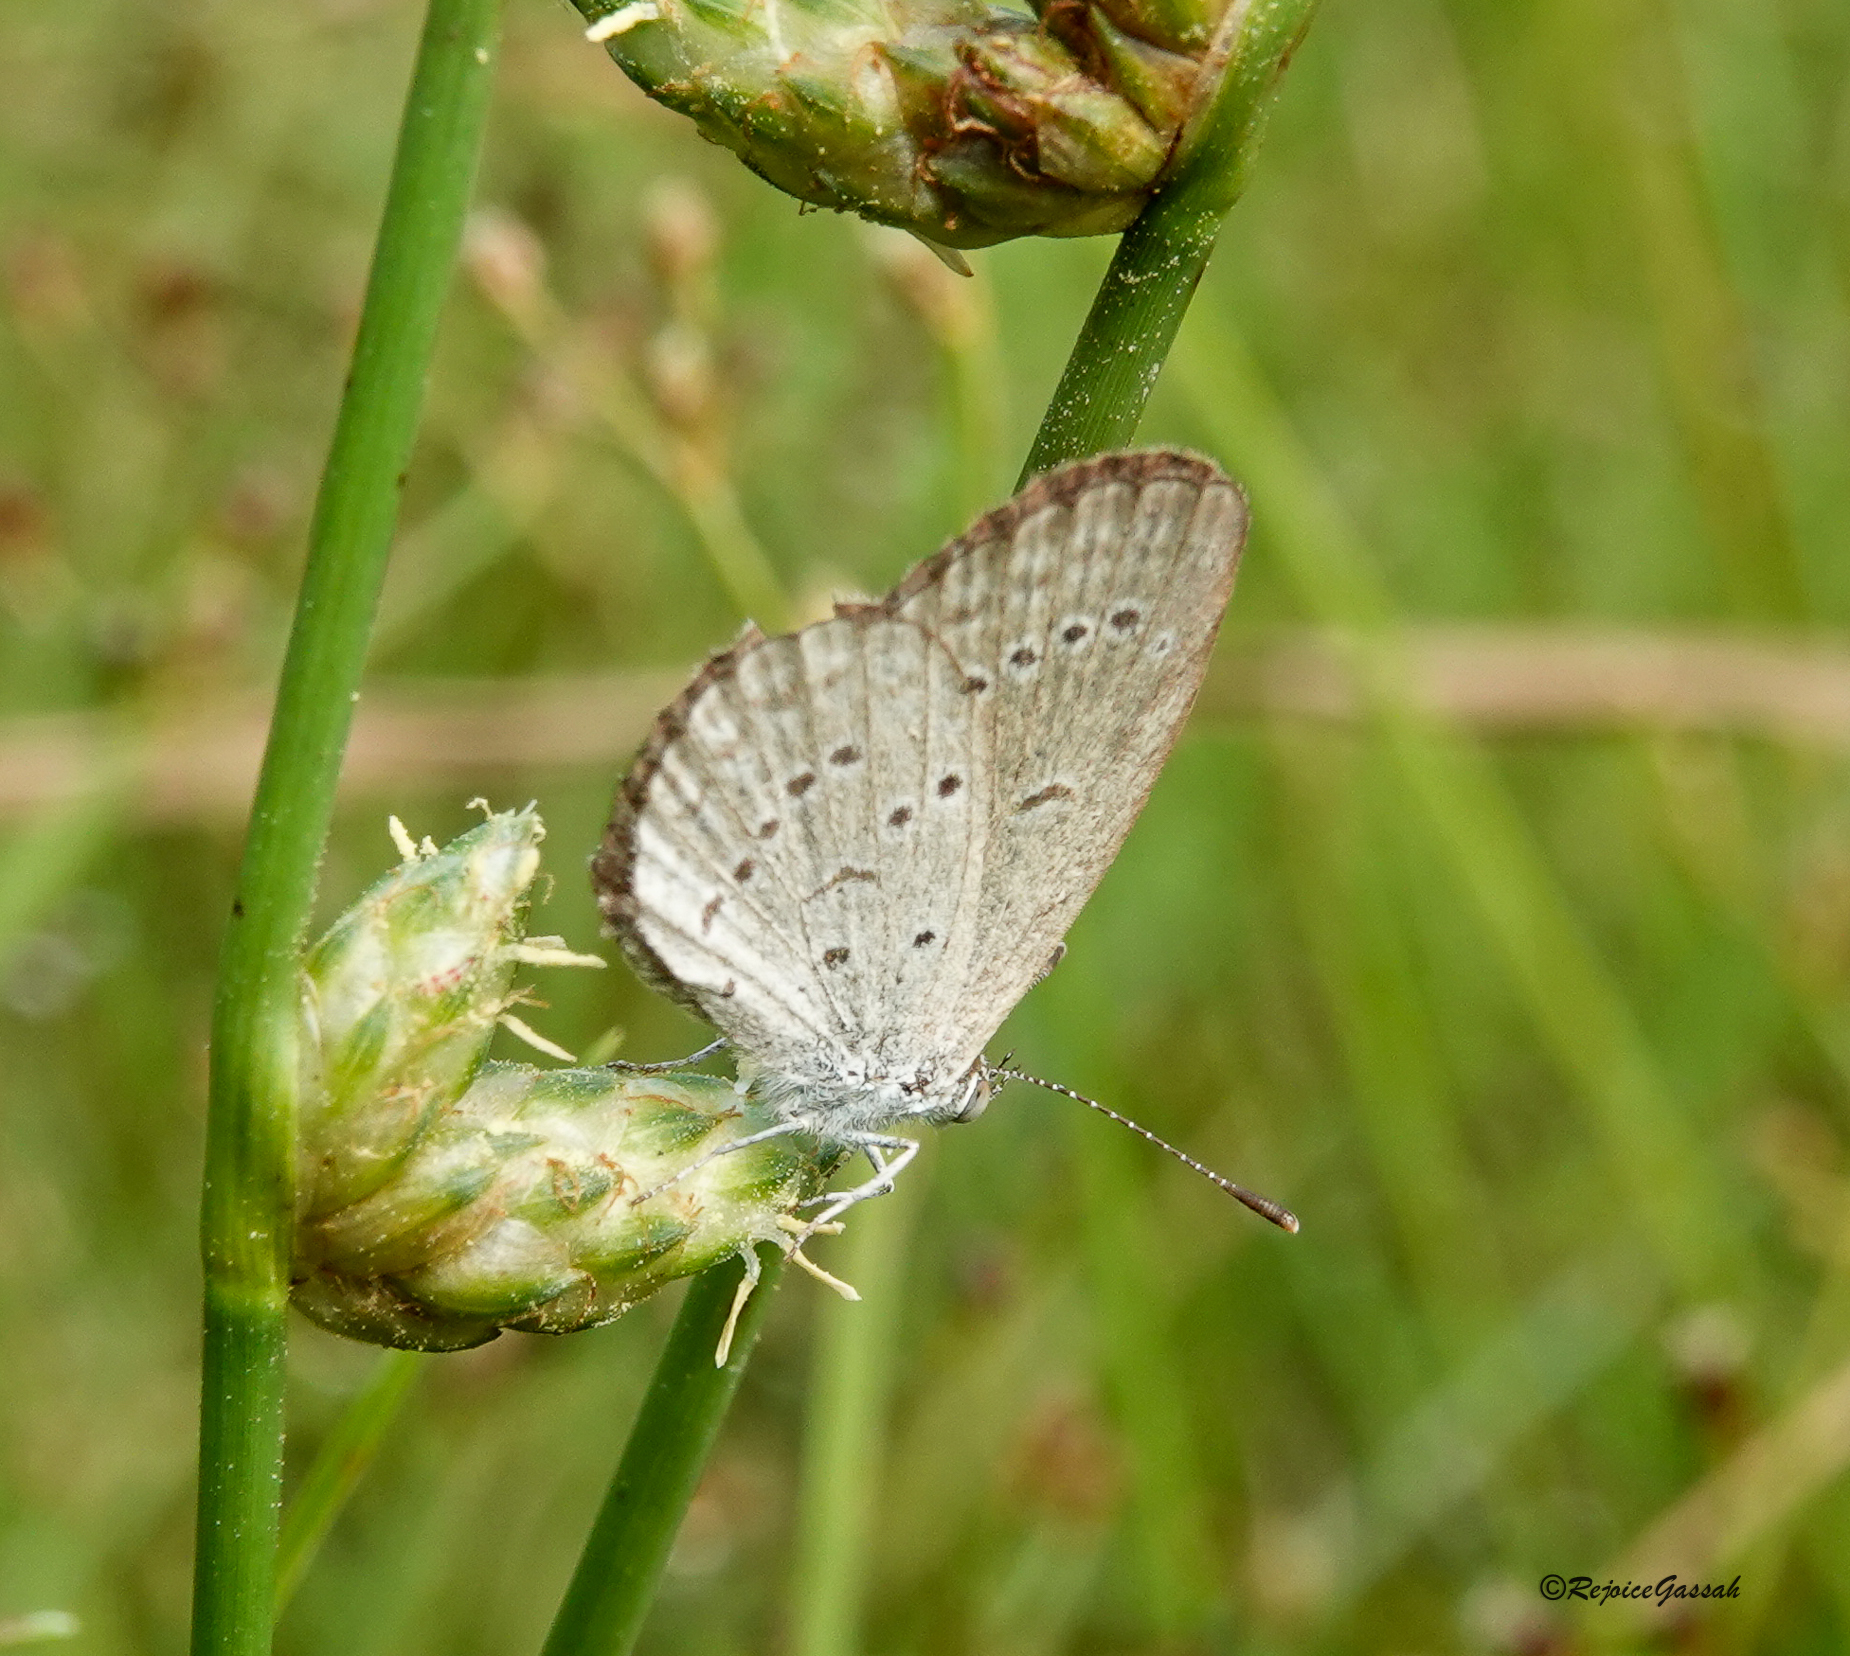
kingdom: Animalia
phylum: Arthropoda
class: Insecta
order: Lepidoptera
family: Lycaenidae
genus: Zizina
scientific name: Zizina otis
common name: Lesser grass blue
